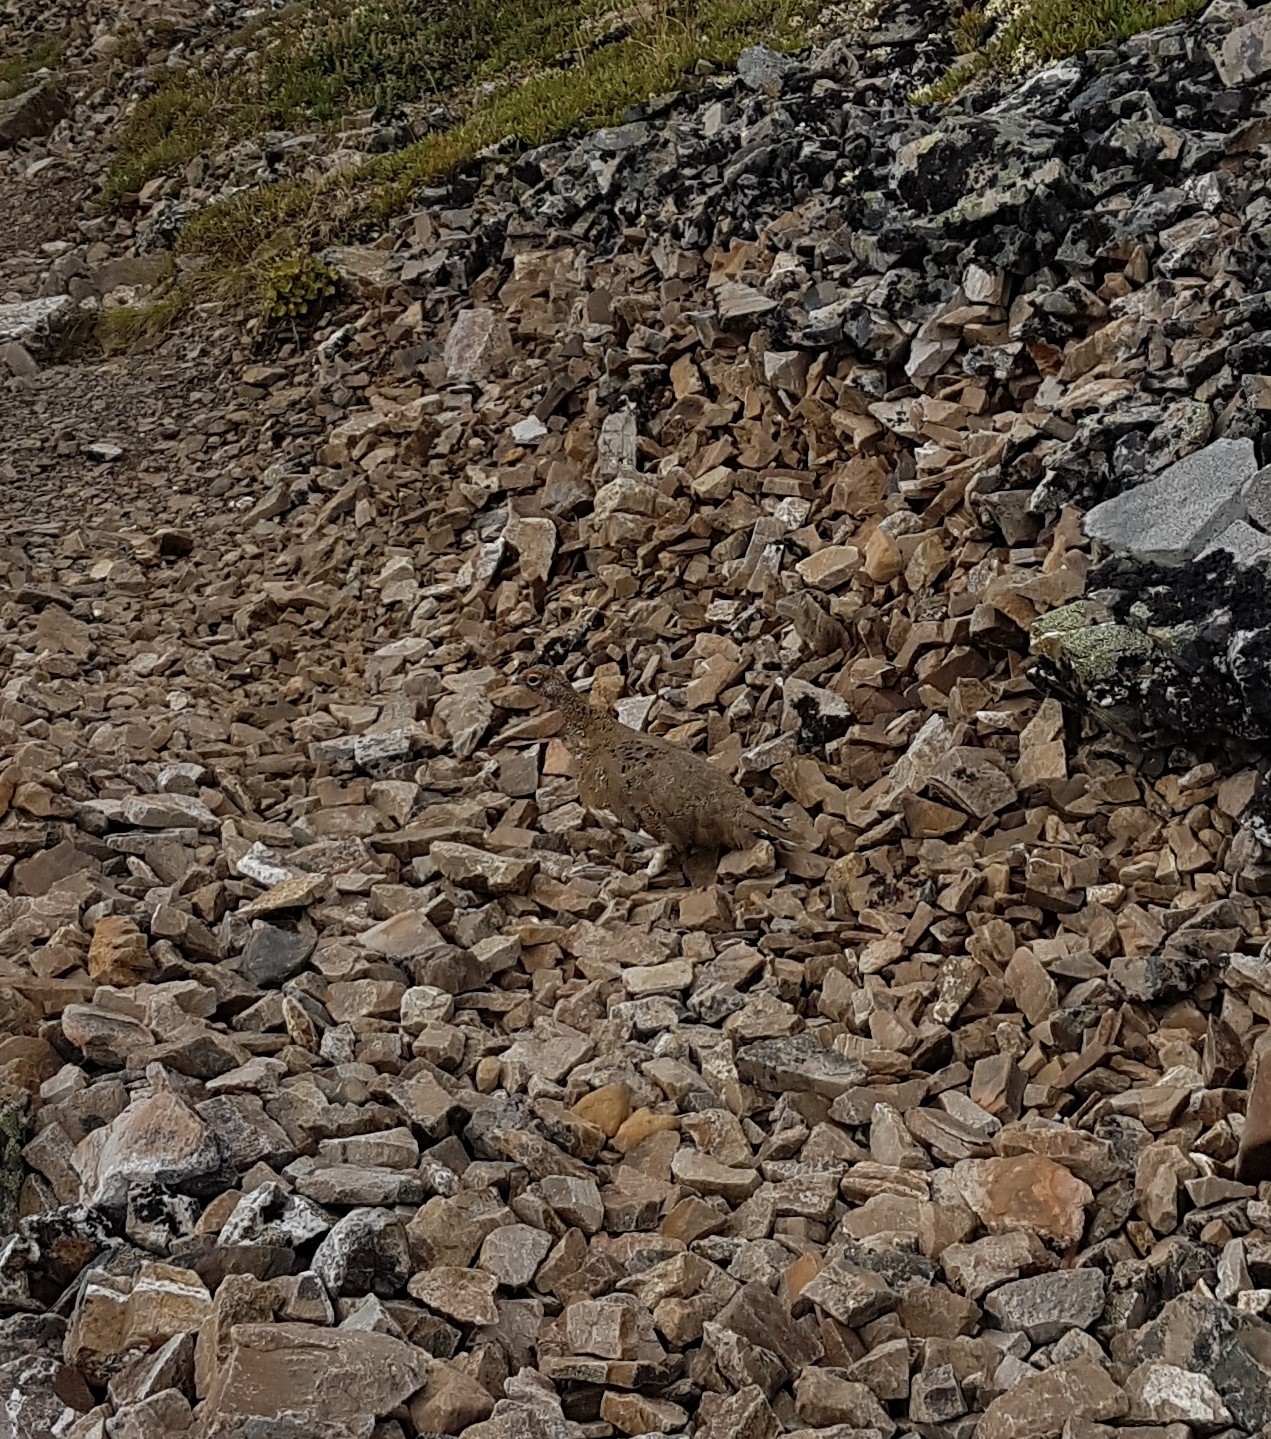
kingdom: Animalia
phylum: Chordata
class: Aves
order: Galliformes
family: Phasianidae
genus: Lagopus
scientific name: Lagopus muta
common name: Rock ptarmigan
